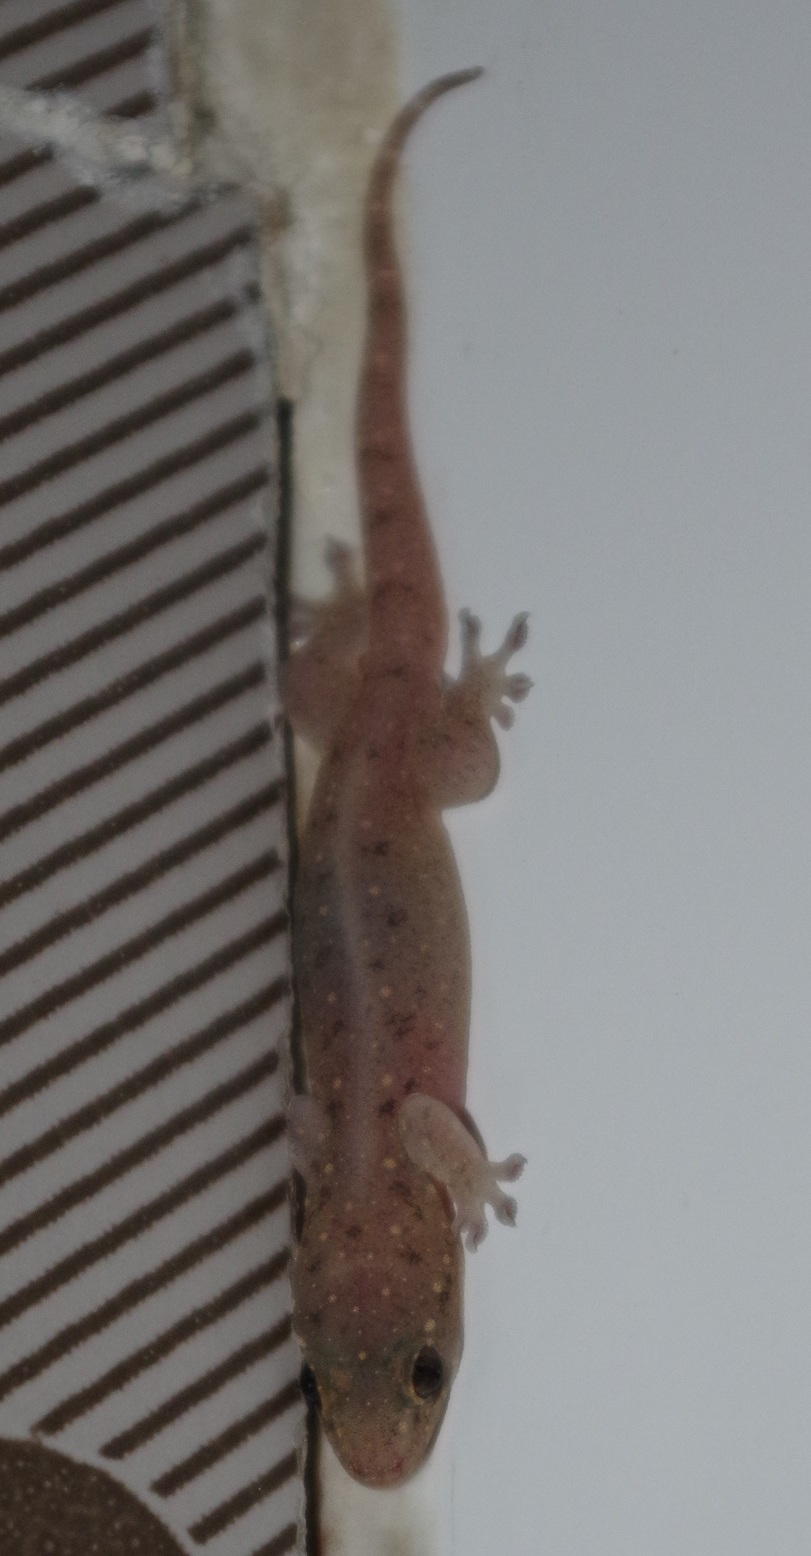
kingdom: Animalia
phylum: Chordata
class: Squamata
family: Gekkonidae
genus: Gehyra
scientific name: Gehyra mutilata
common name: Stump-toed gecko
